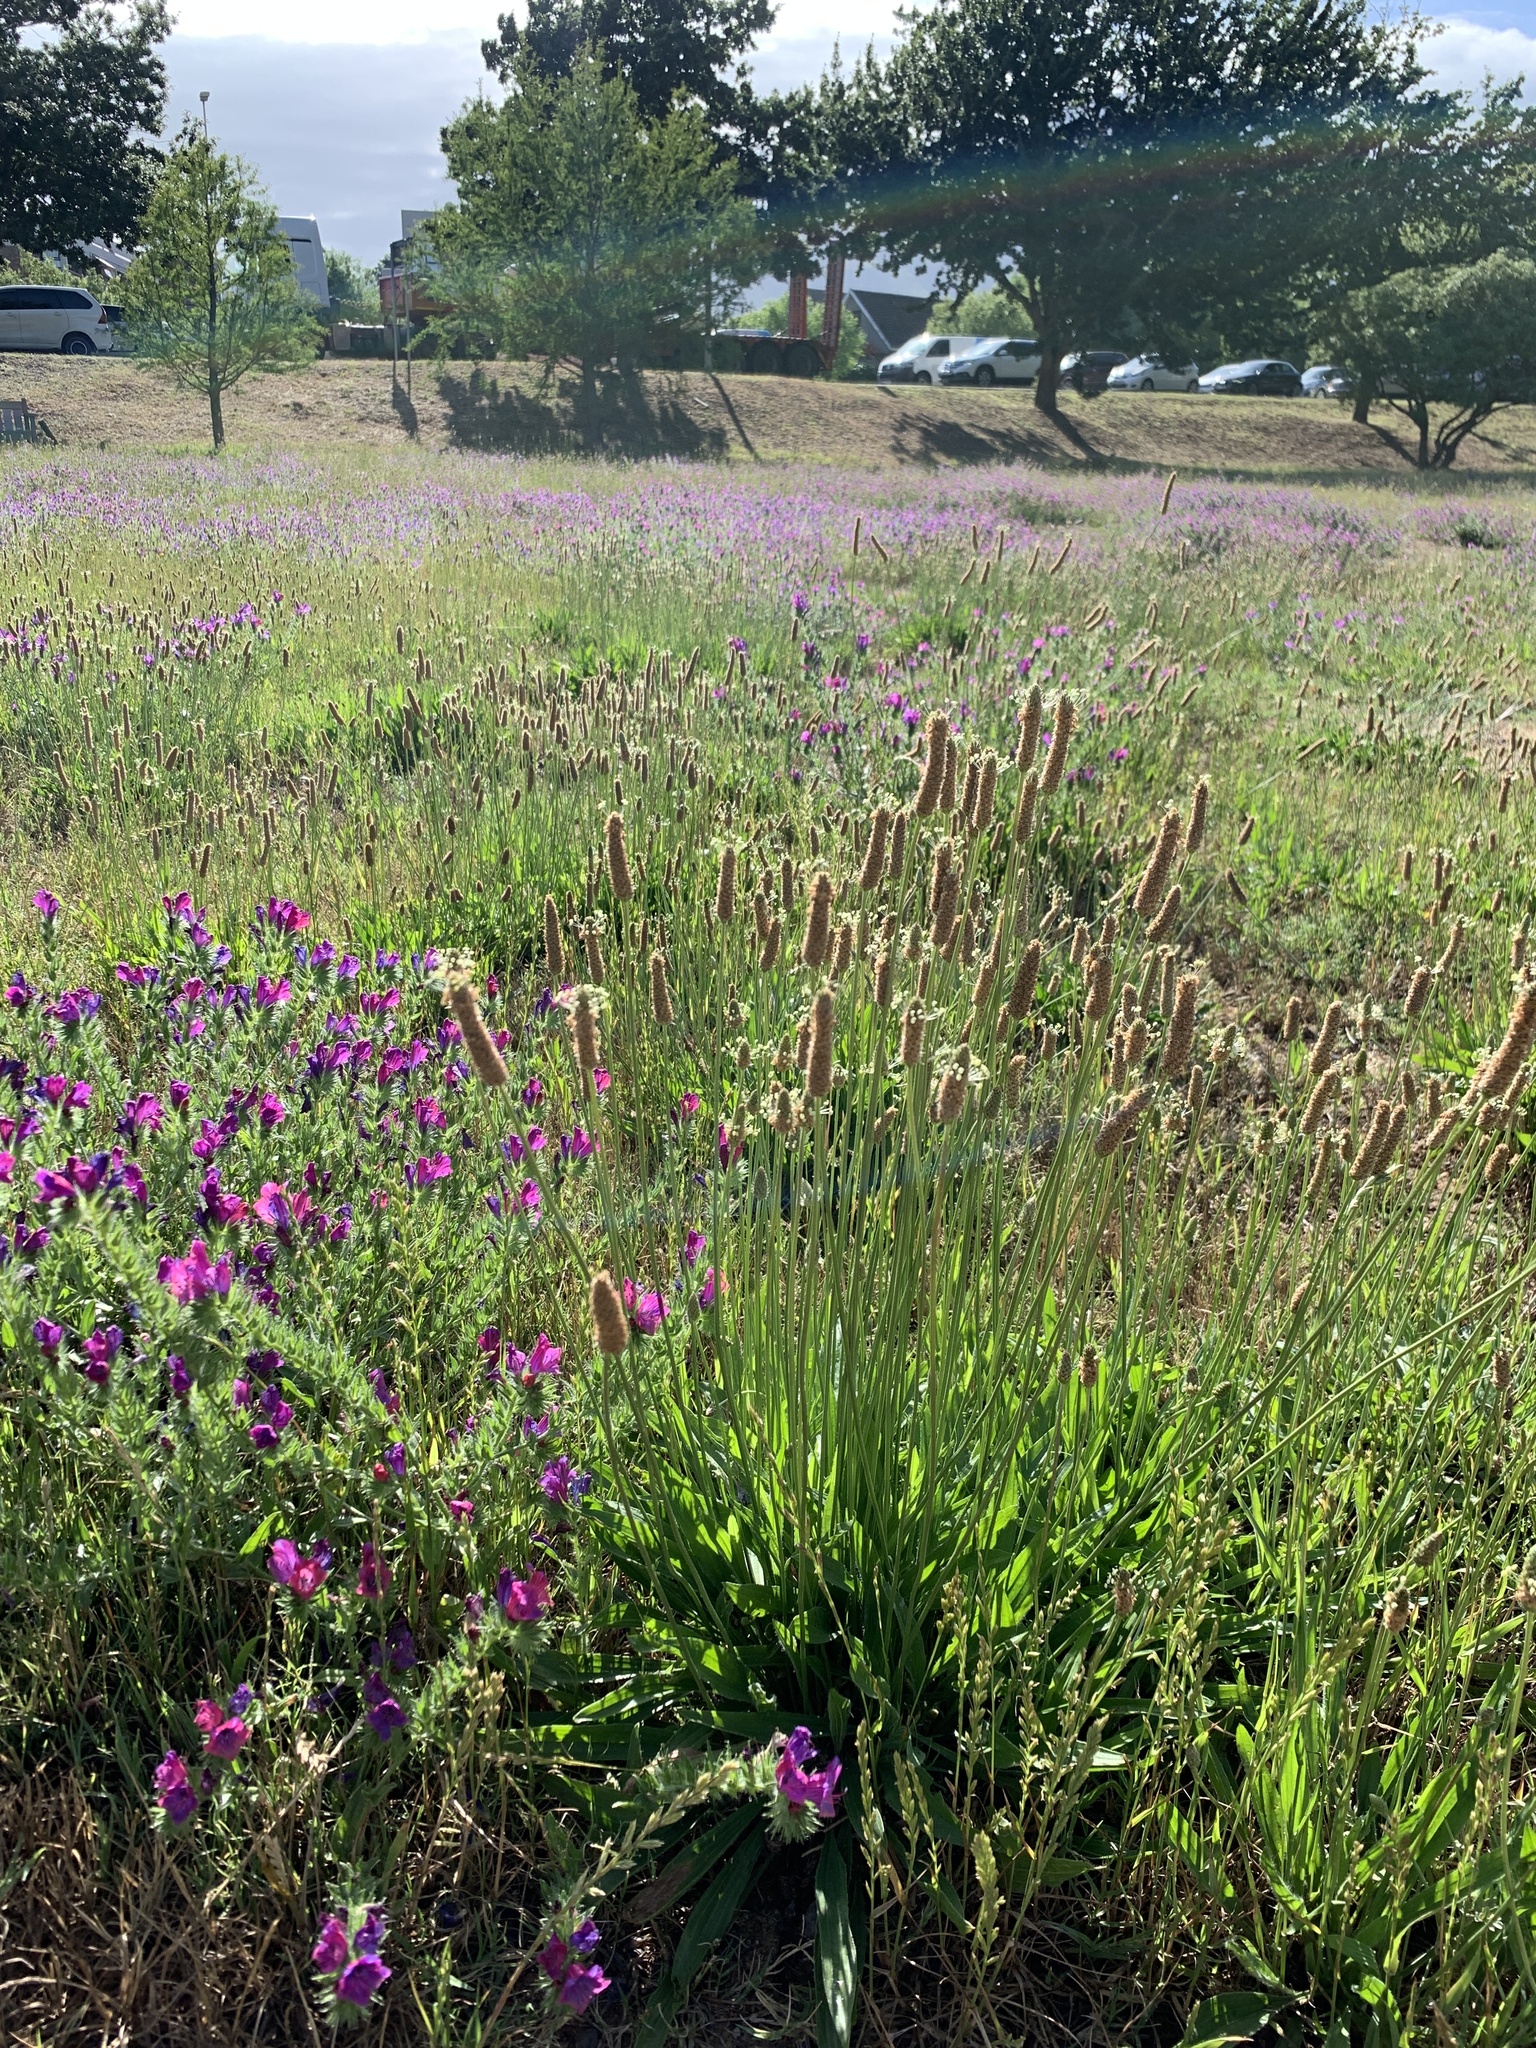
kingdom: Plantae
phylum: Tracheophyta
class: Magnoliopsida
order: Lamiales
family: Plantaginaceae
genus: Plantago
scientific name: Plantago lanceolata
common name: Ribwort plantain
